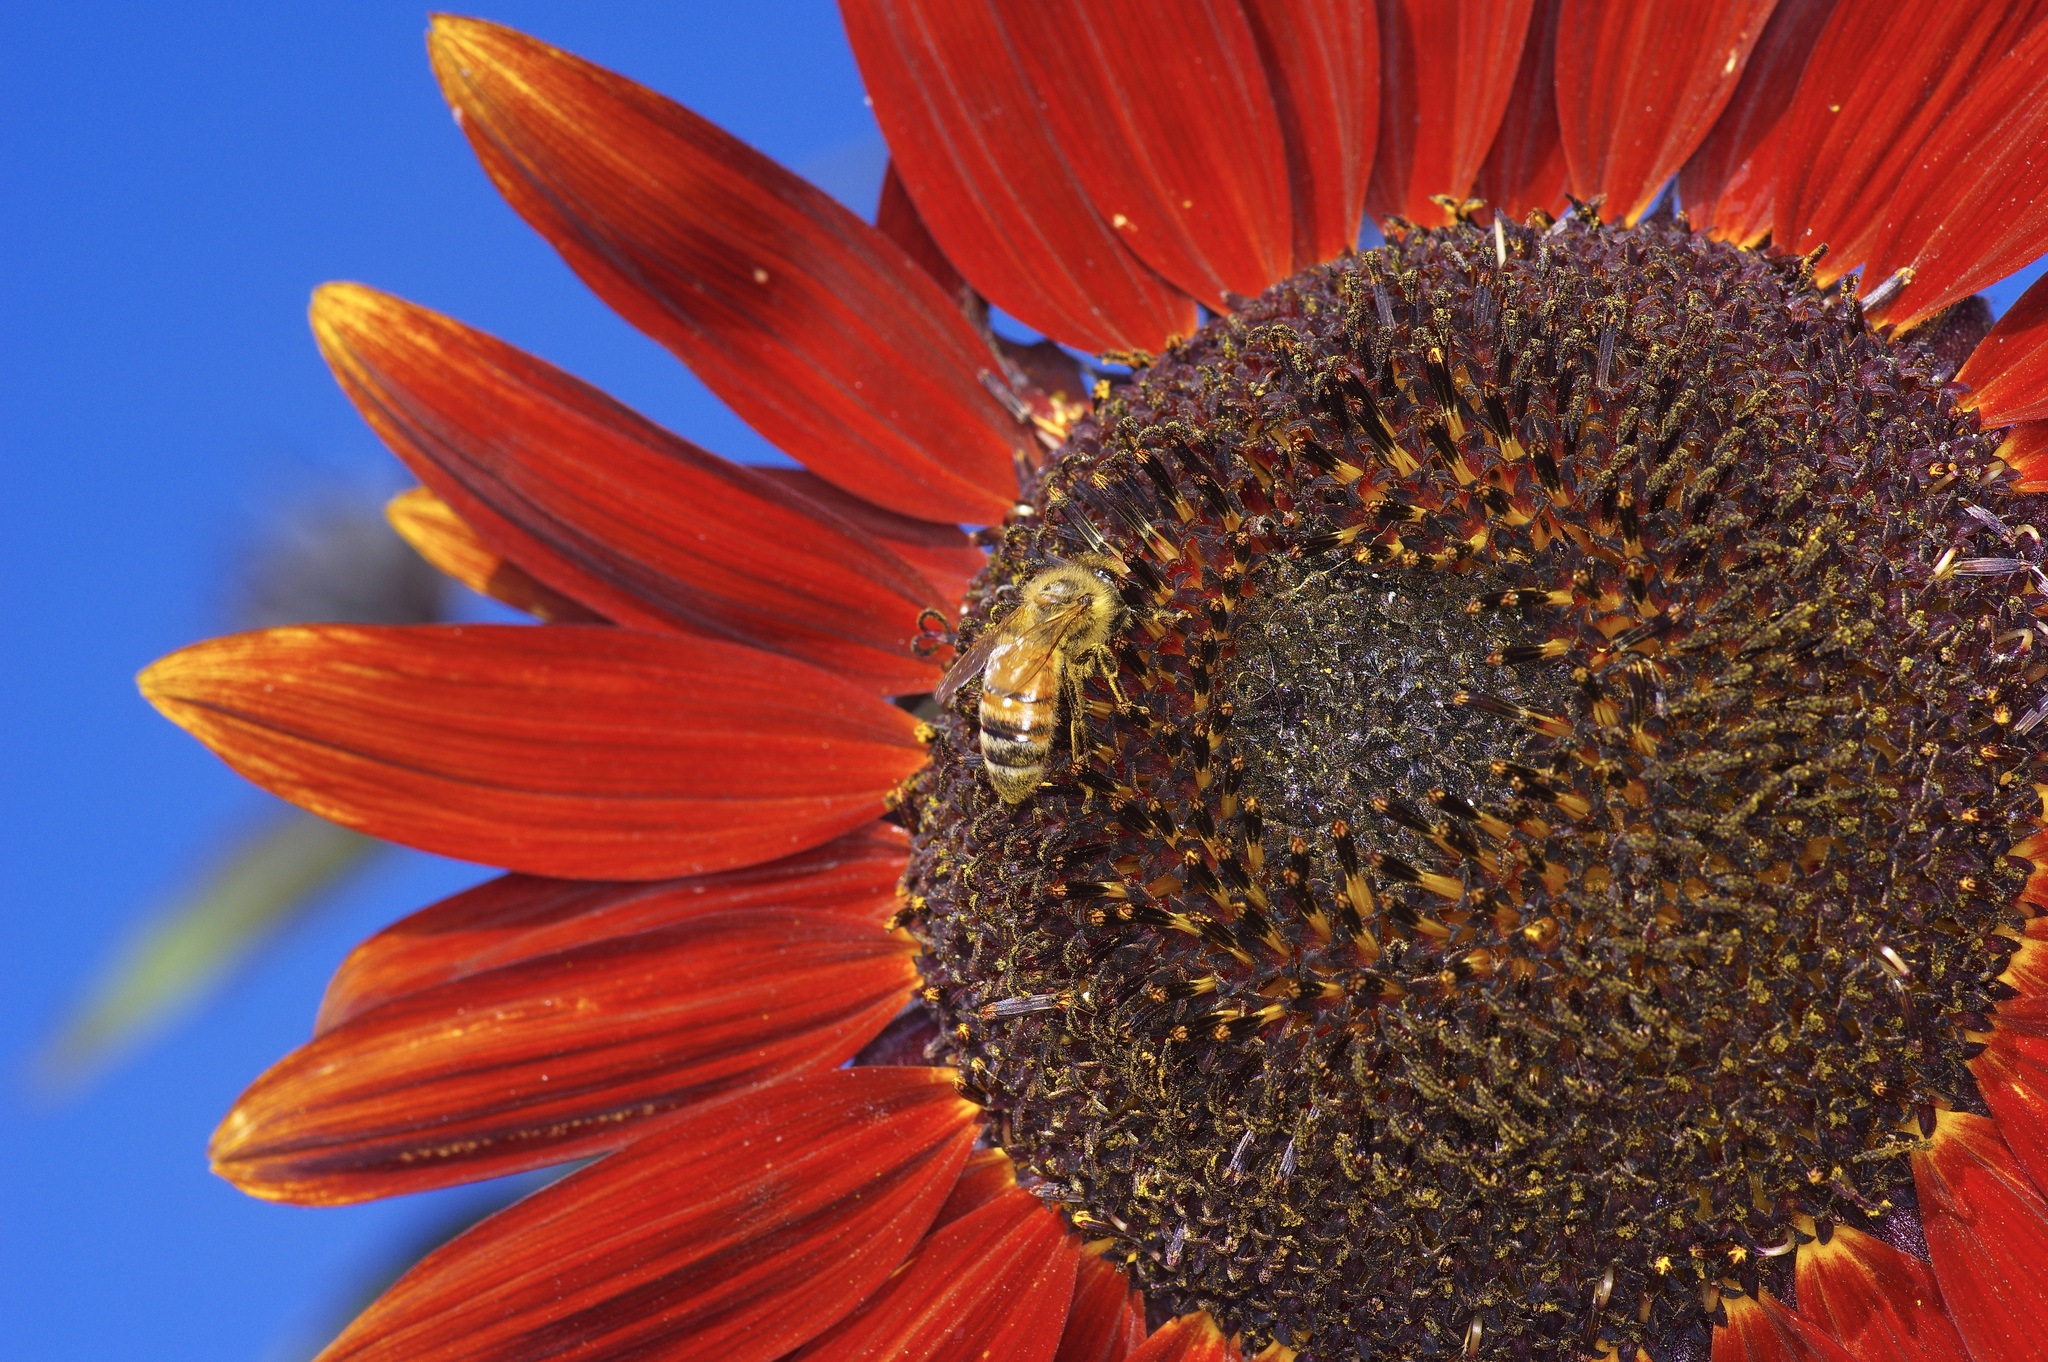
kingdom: Animalia
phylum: Arthropoda
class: Insecta
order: Hymenoptera
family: Apidae
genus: Apis
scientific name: Apis mellifera
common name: Honey bee
